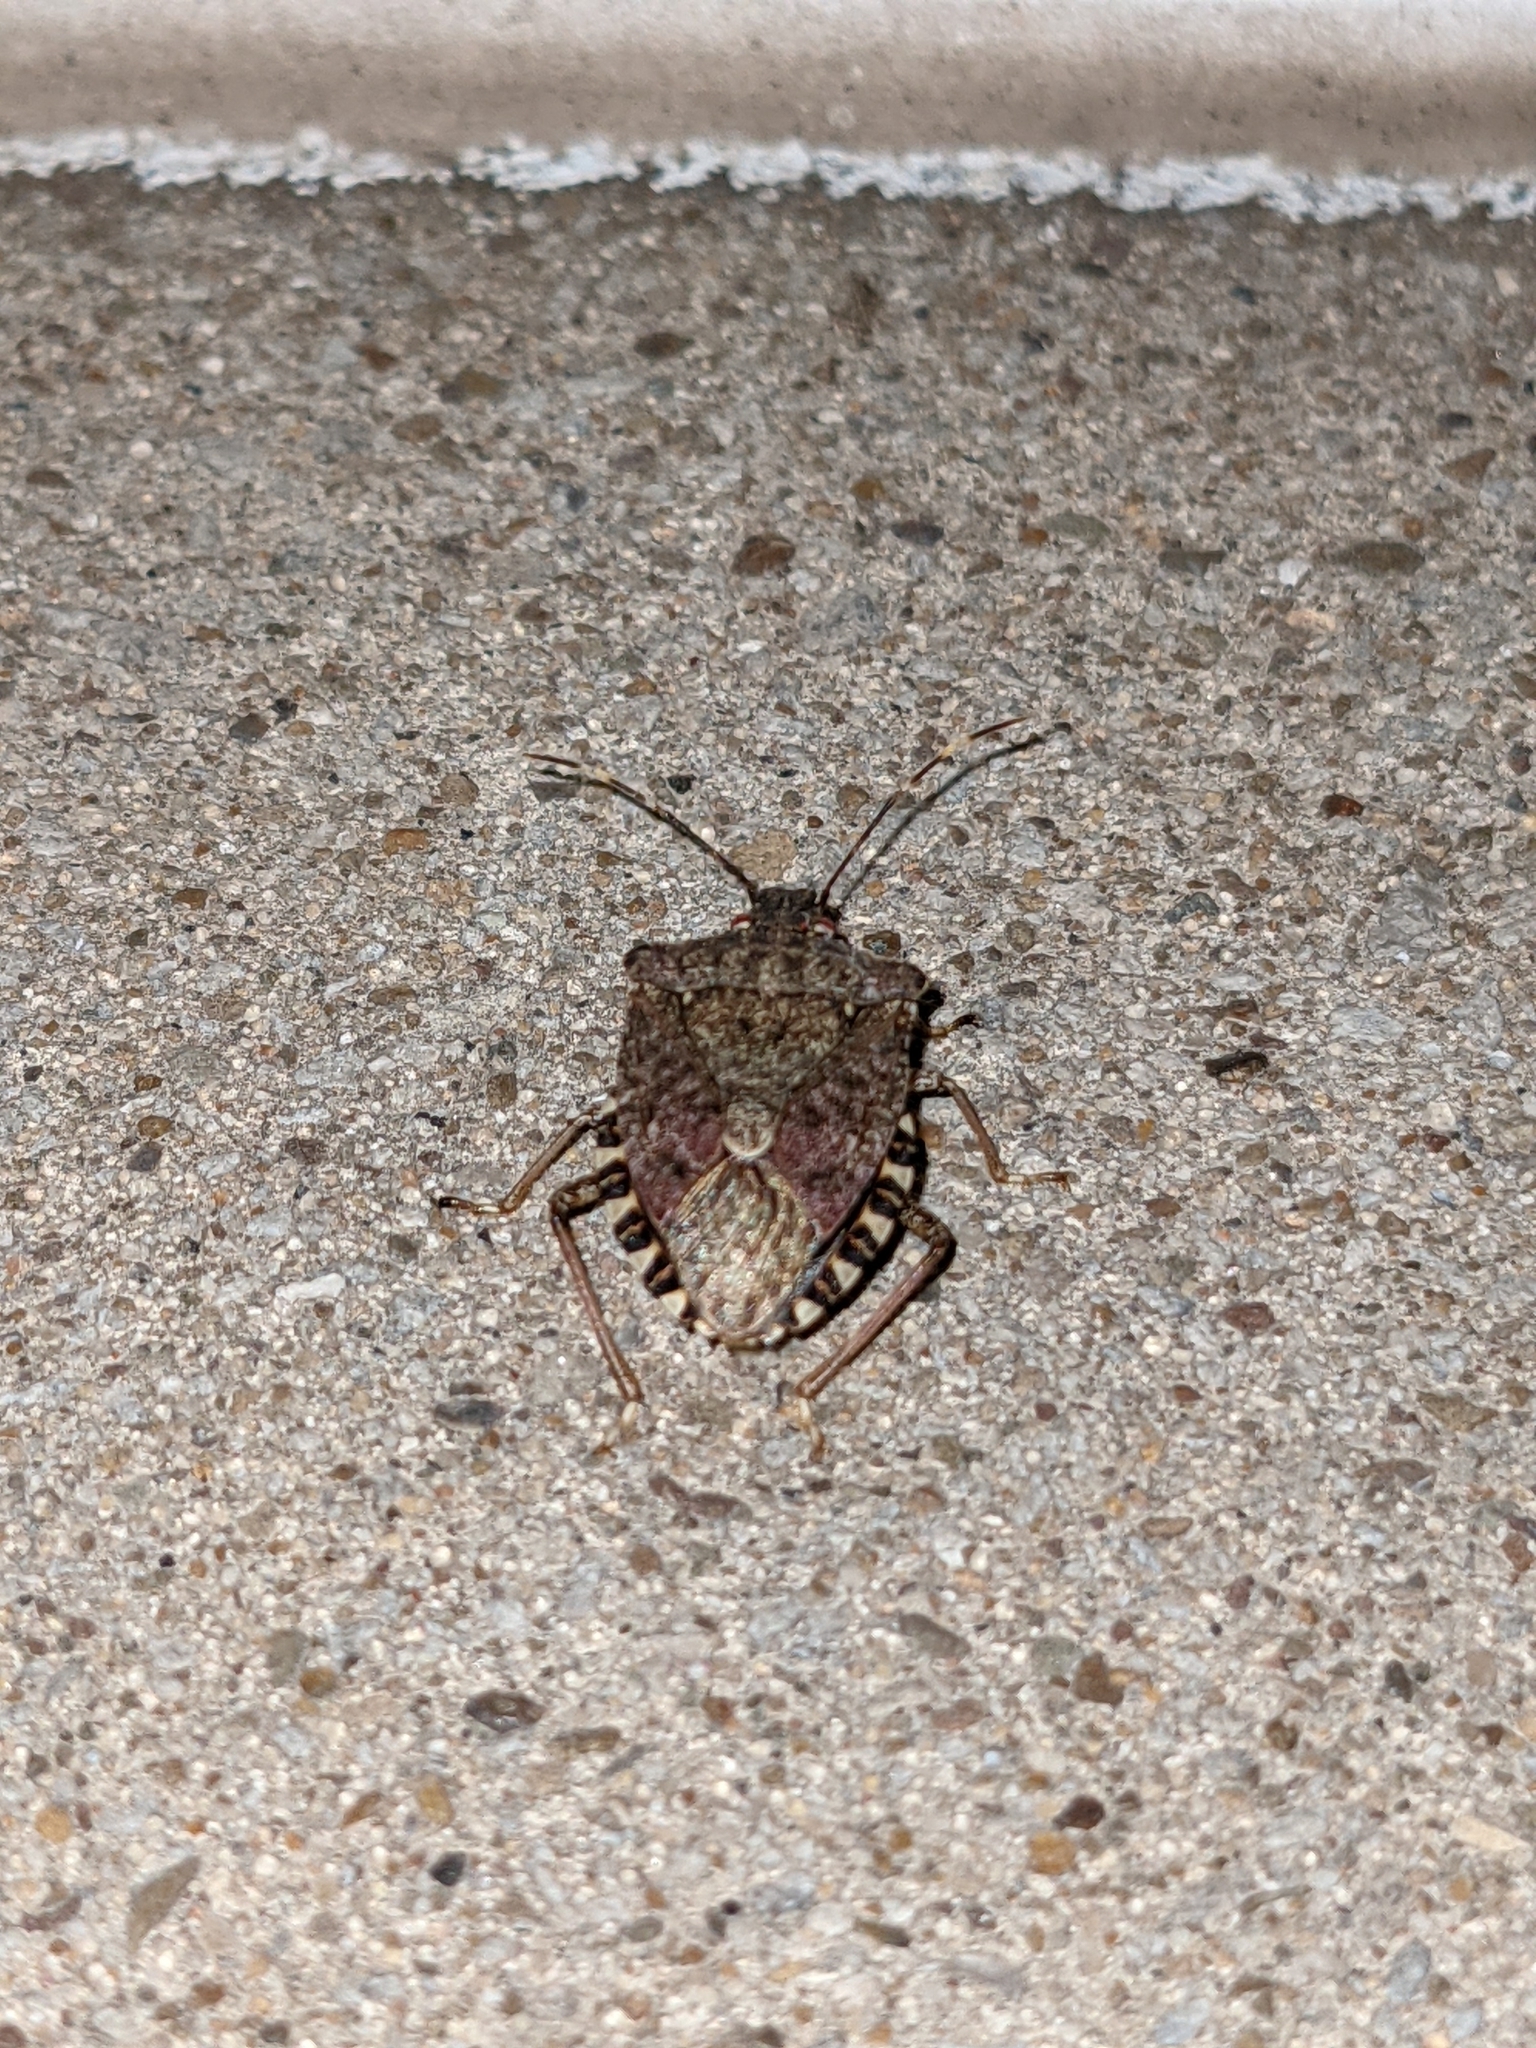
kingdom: Animalia
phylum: Arthropoda
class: Insecta
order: Hemiptera
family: Pentatomidae
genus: Halyomorpha
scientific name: Halyomorpha halys
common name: Brown marmorated stink bug
